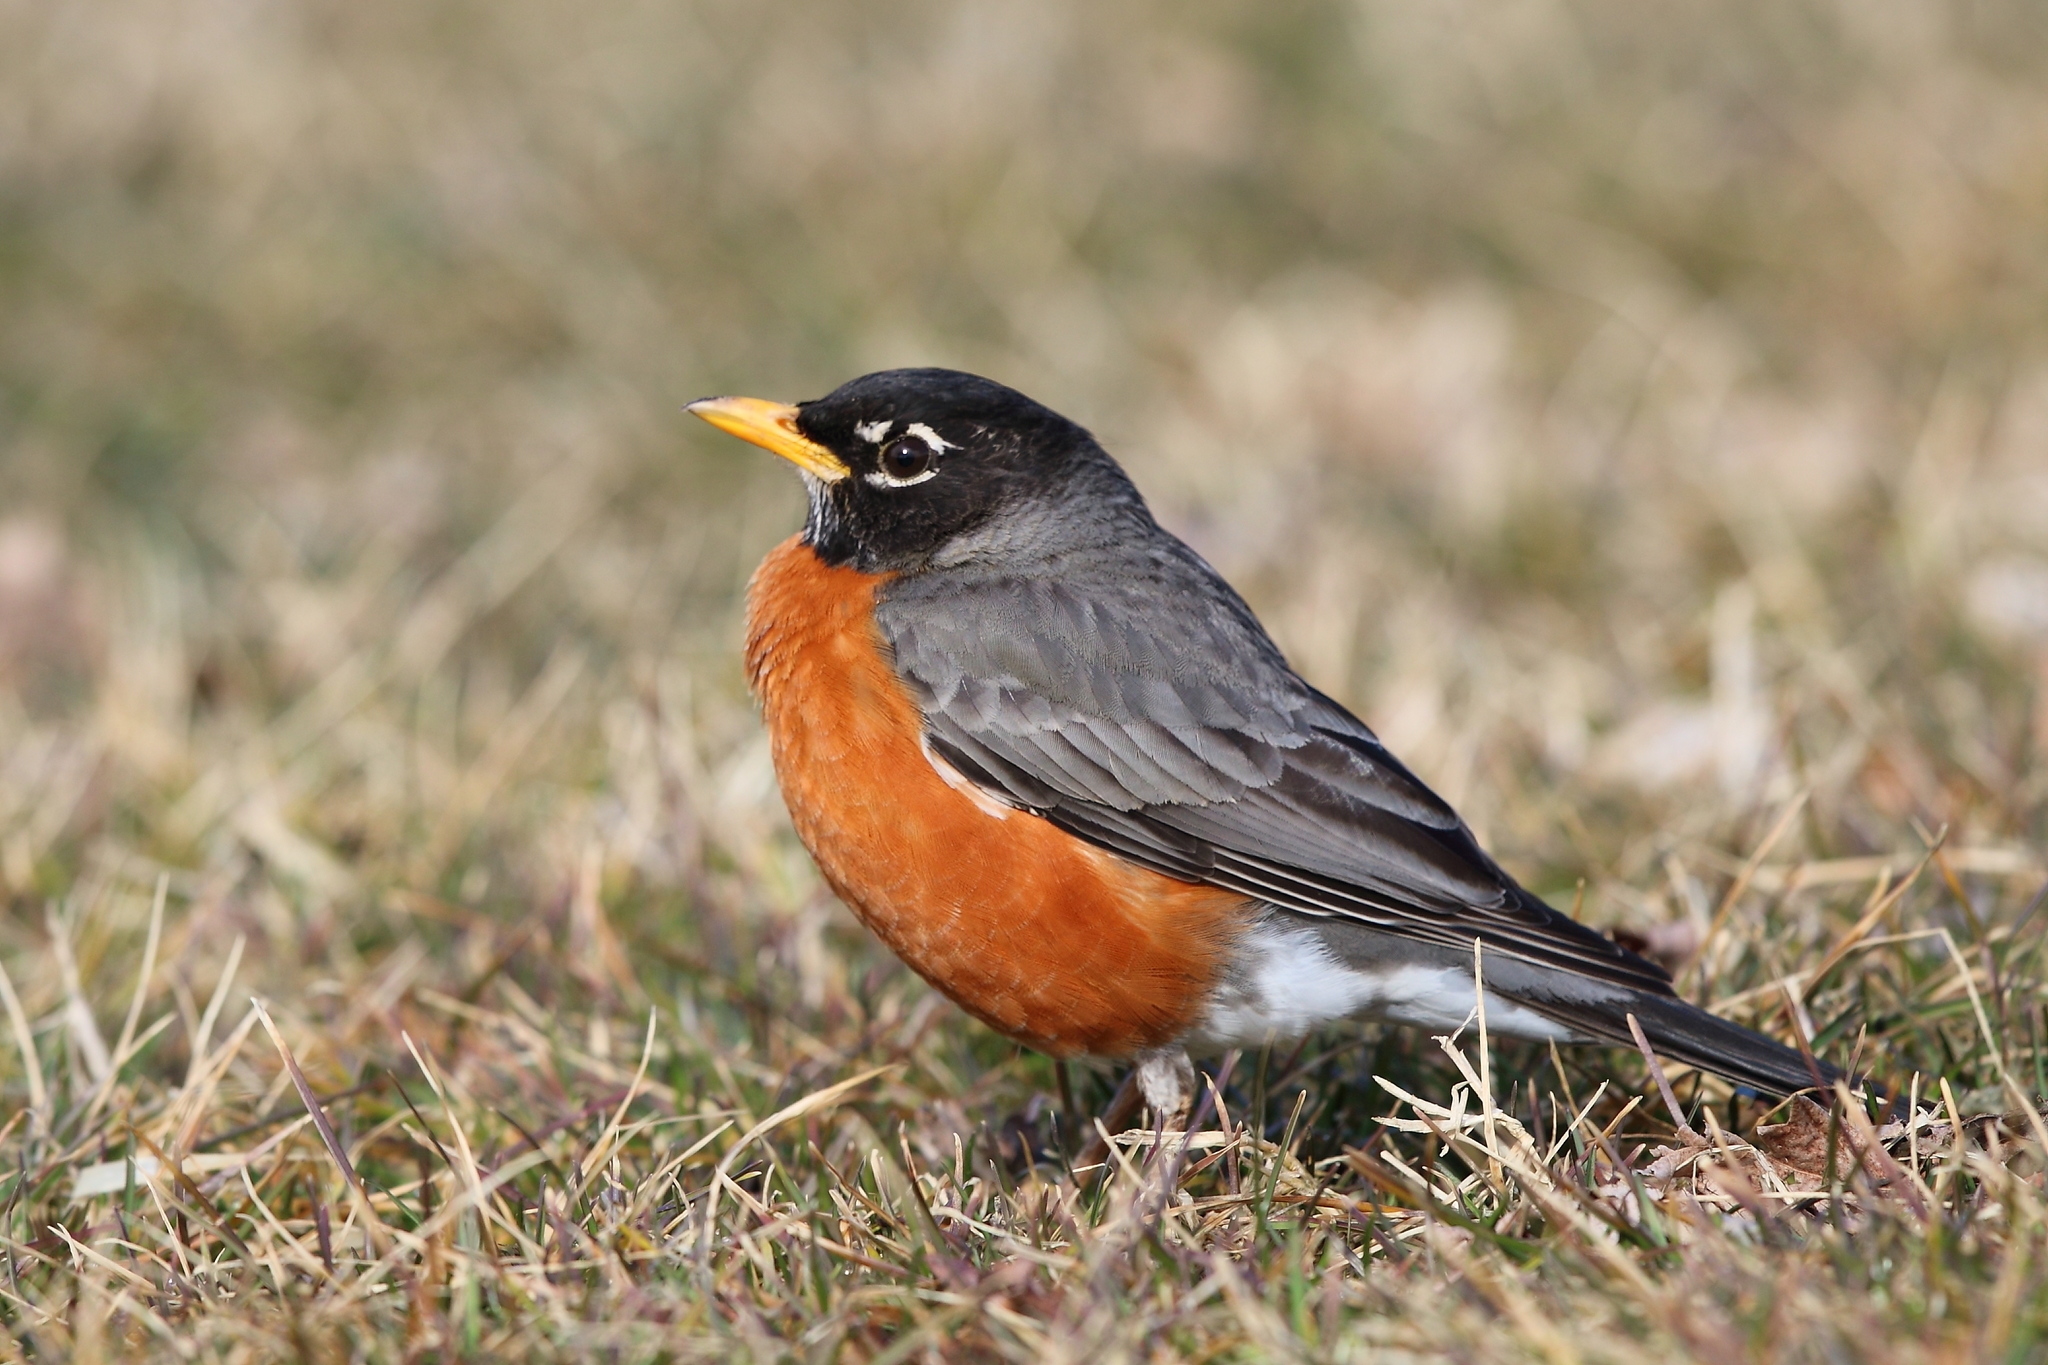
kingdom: Animalia
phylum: Chordata
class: Aves
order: Passeriformes
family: Turdidae
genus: Turdus
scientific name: Turdus migratorius
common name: American robin
